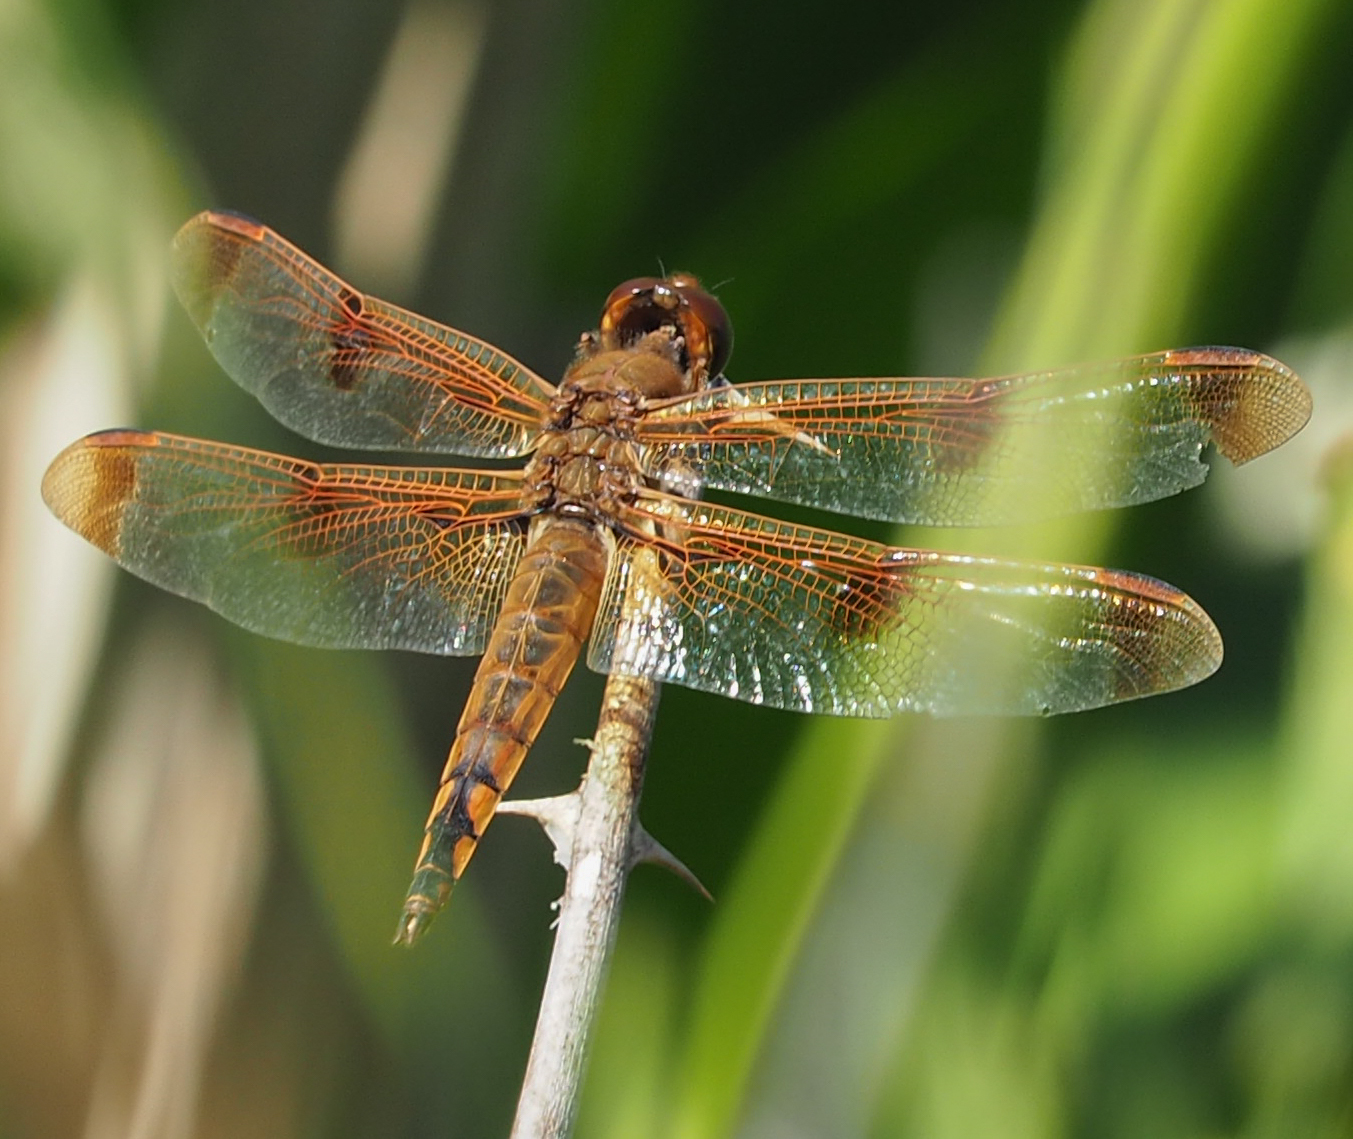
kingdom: Animalia
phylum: Arthropoda
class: Insecta
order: Odonata
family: Libellulidae
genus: Libellula
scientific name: Libellula semifasciata
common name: Painted skimmer
